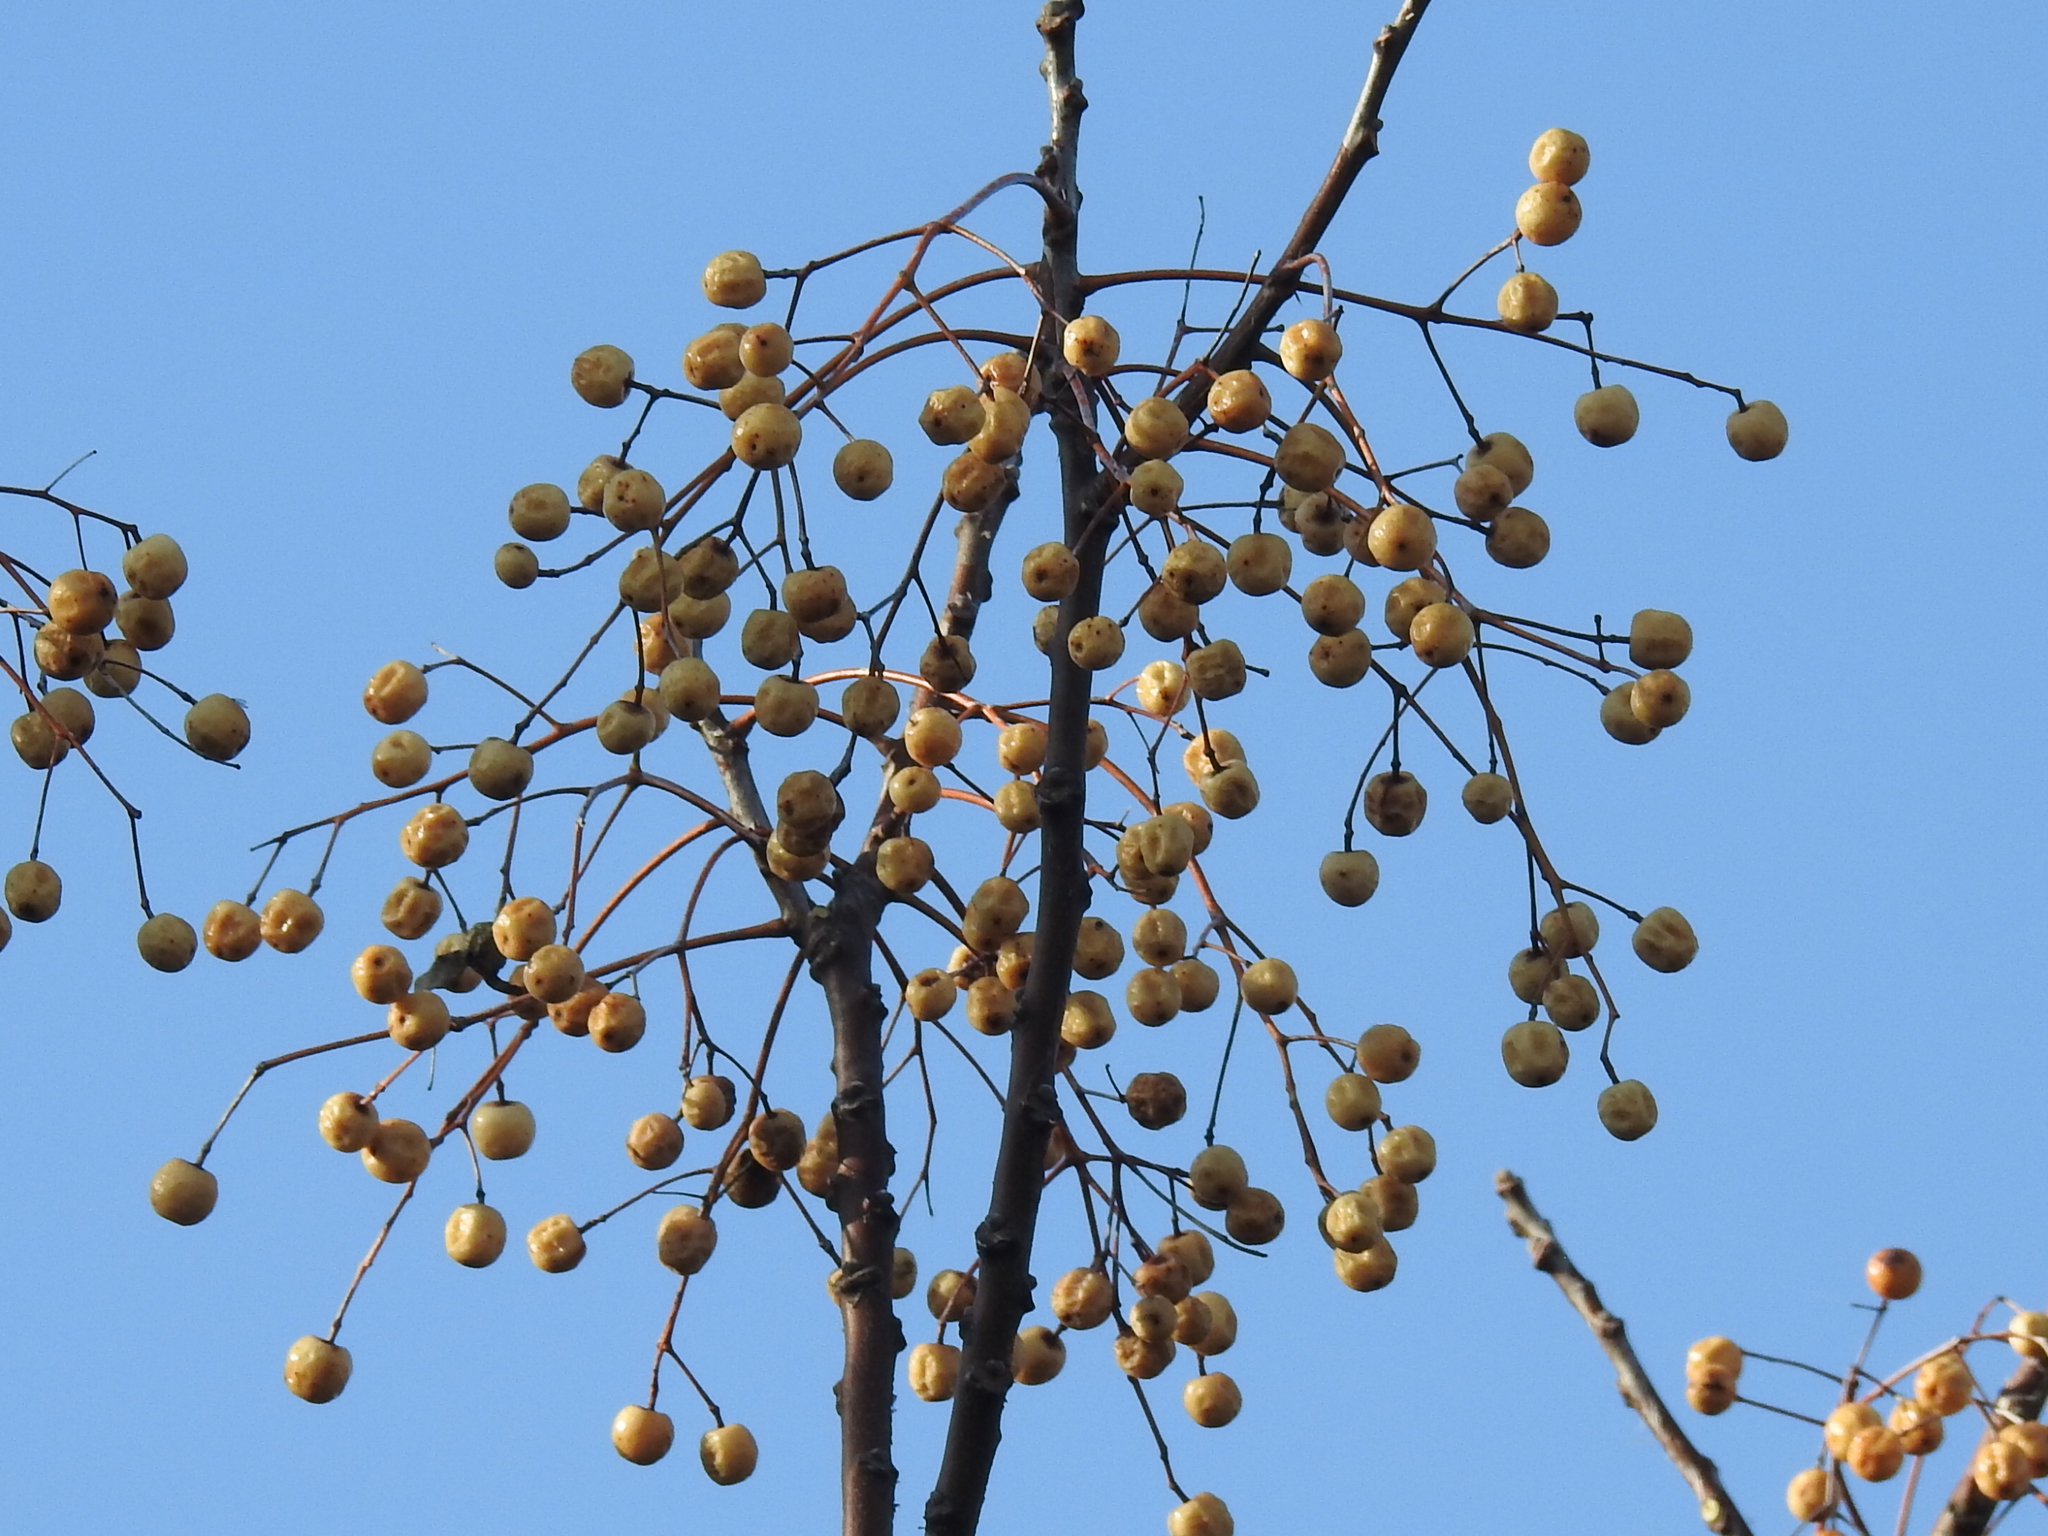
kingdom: Plantae
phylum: Tracheophyta
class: Magnoliopsida
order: Sapindales
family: Meliaceae
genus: Melia
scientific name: Melia azedarach
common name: Chinaberrytree
